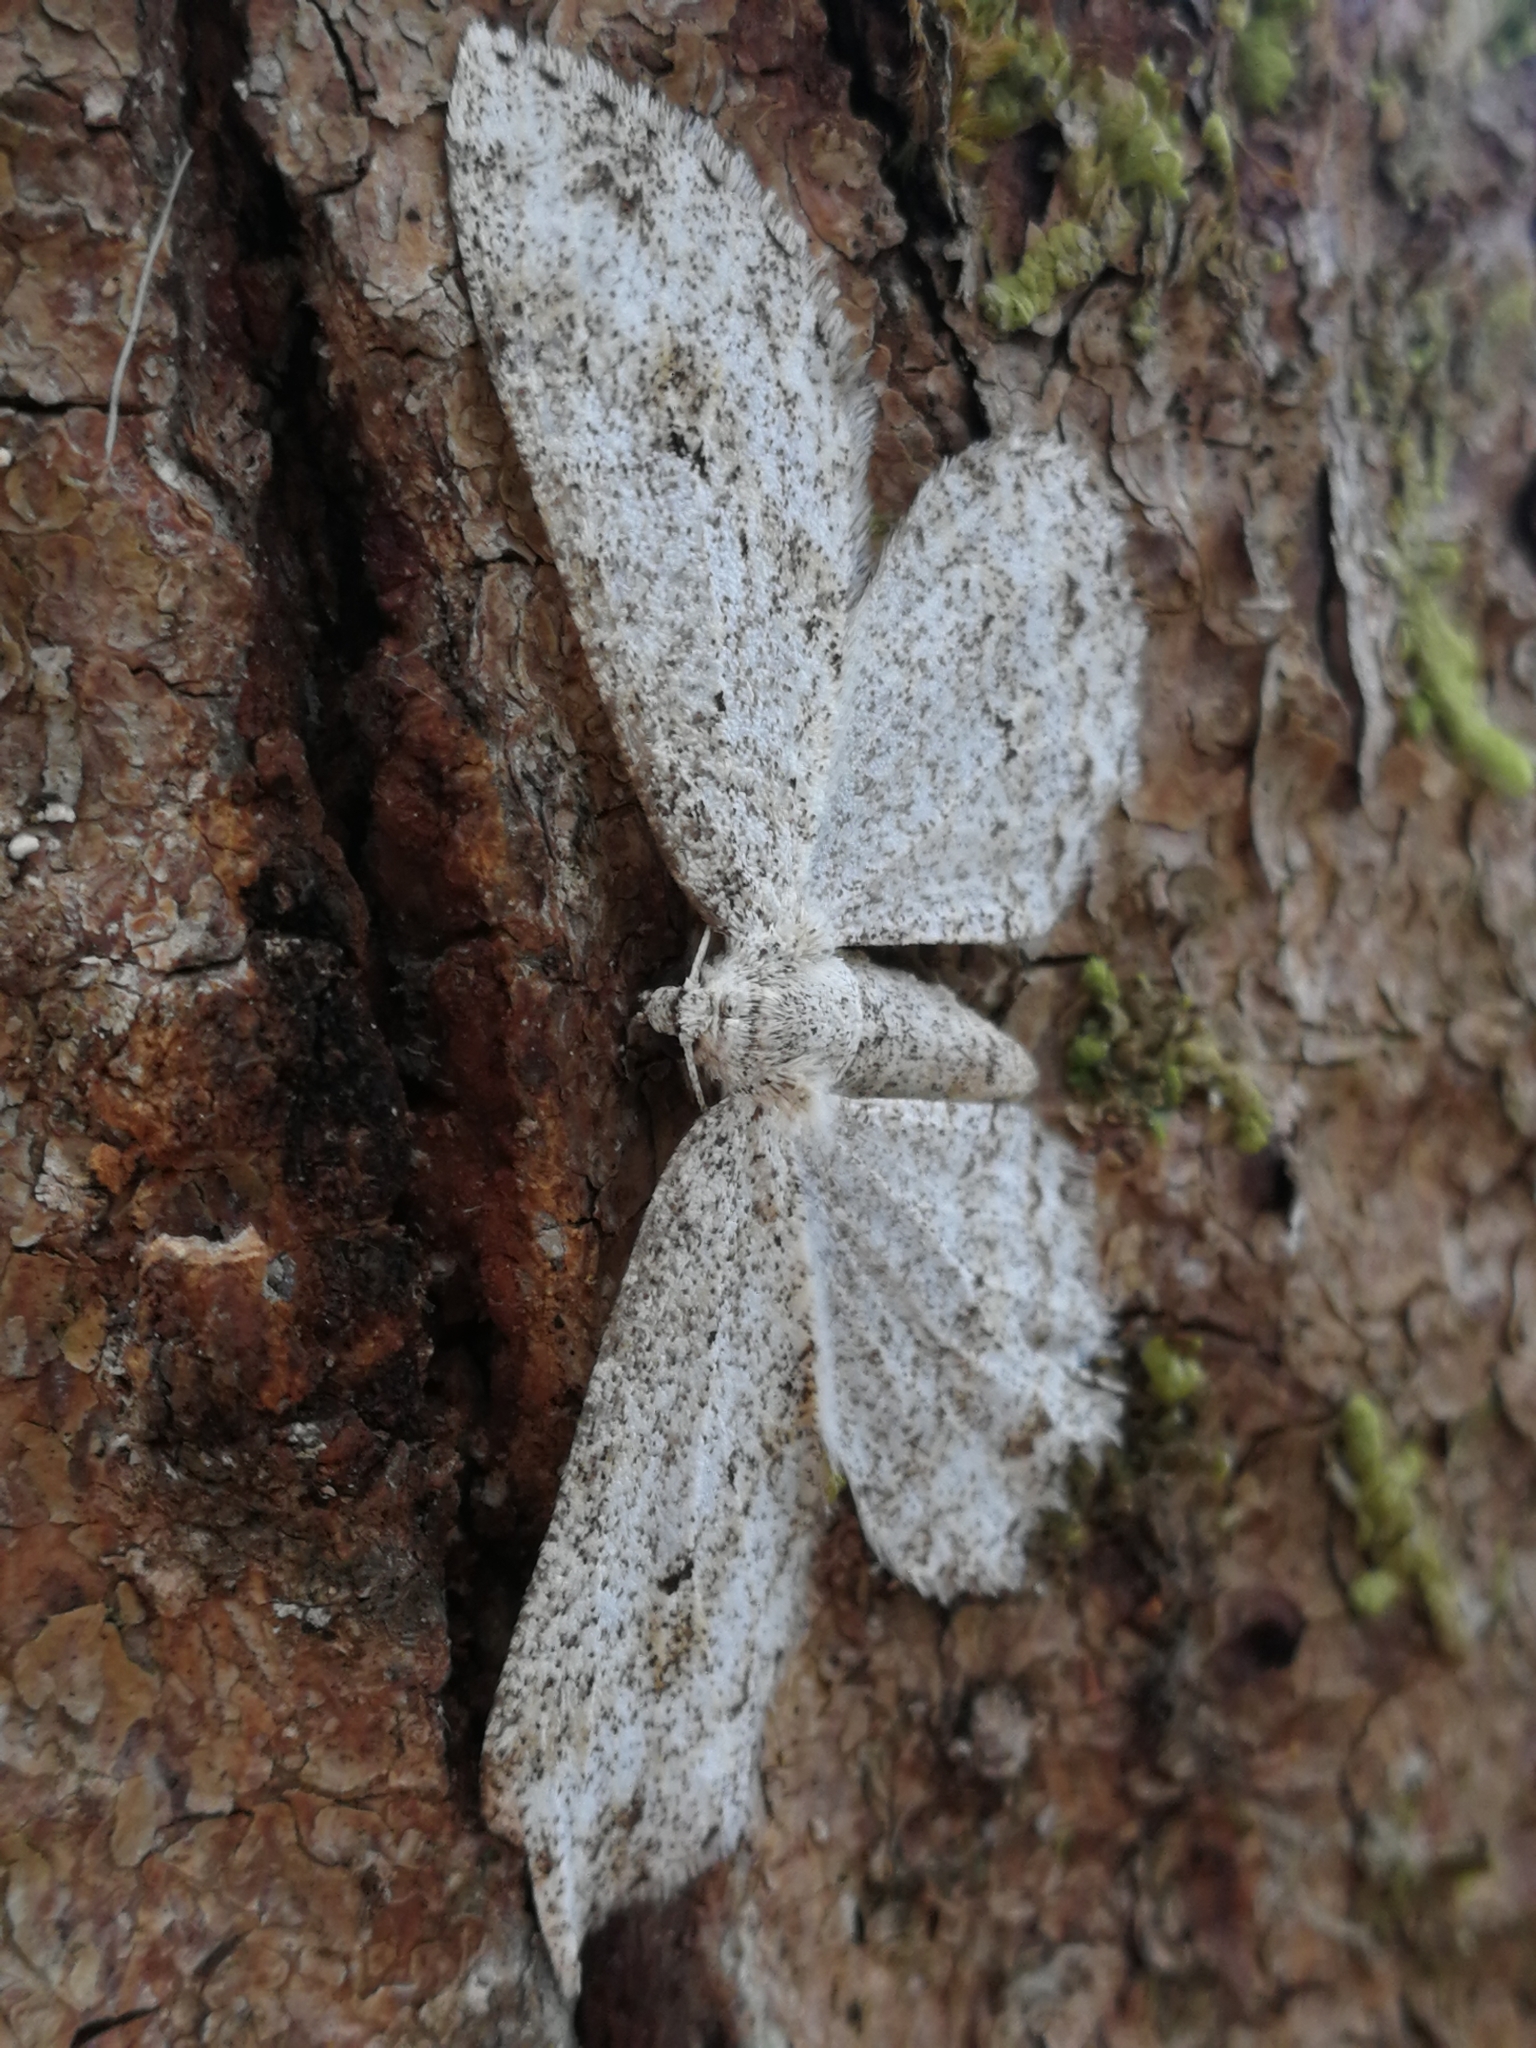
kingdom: Animalia
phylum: Arthropoda
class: Insecta
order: Lepidoptera
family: Geometridae
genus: Ectropis
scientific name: Ectropis crepuscularia
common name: Engrailed
